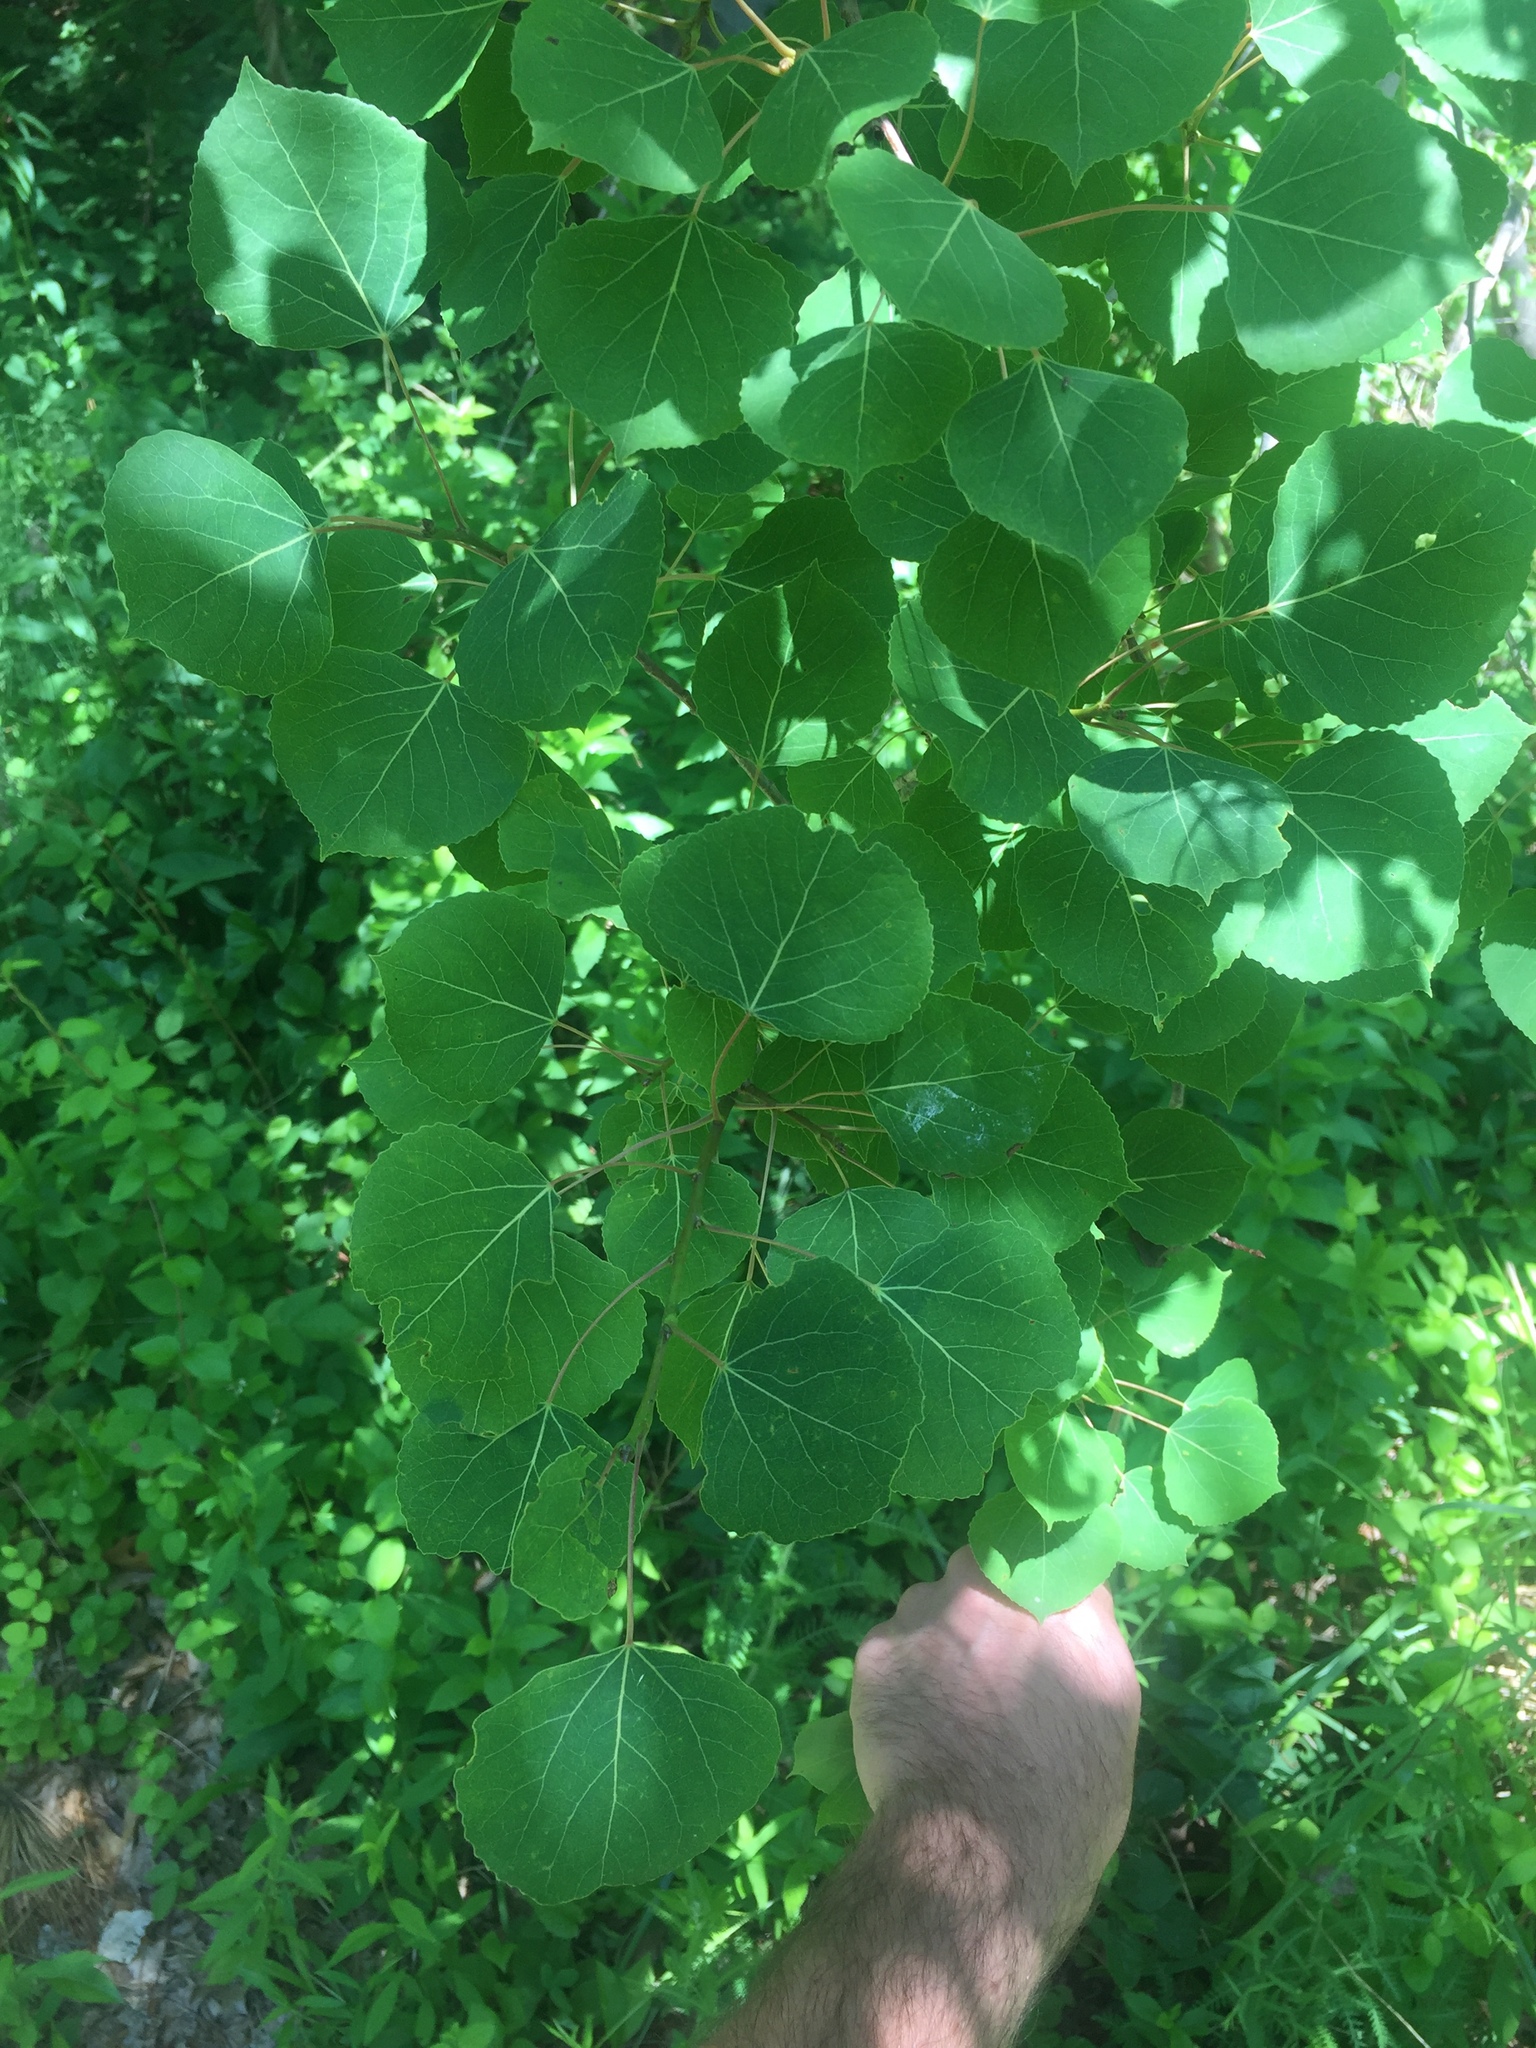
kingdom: Plantae
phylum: Tracheophyta
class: Magnoliopsida
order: Malpighiales
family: Salicaceae
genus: Populus
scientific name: Populus tremuloides
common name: Quaking aspen
